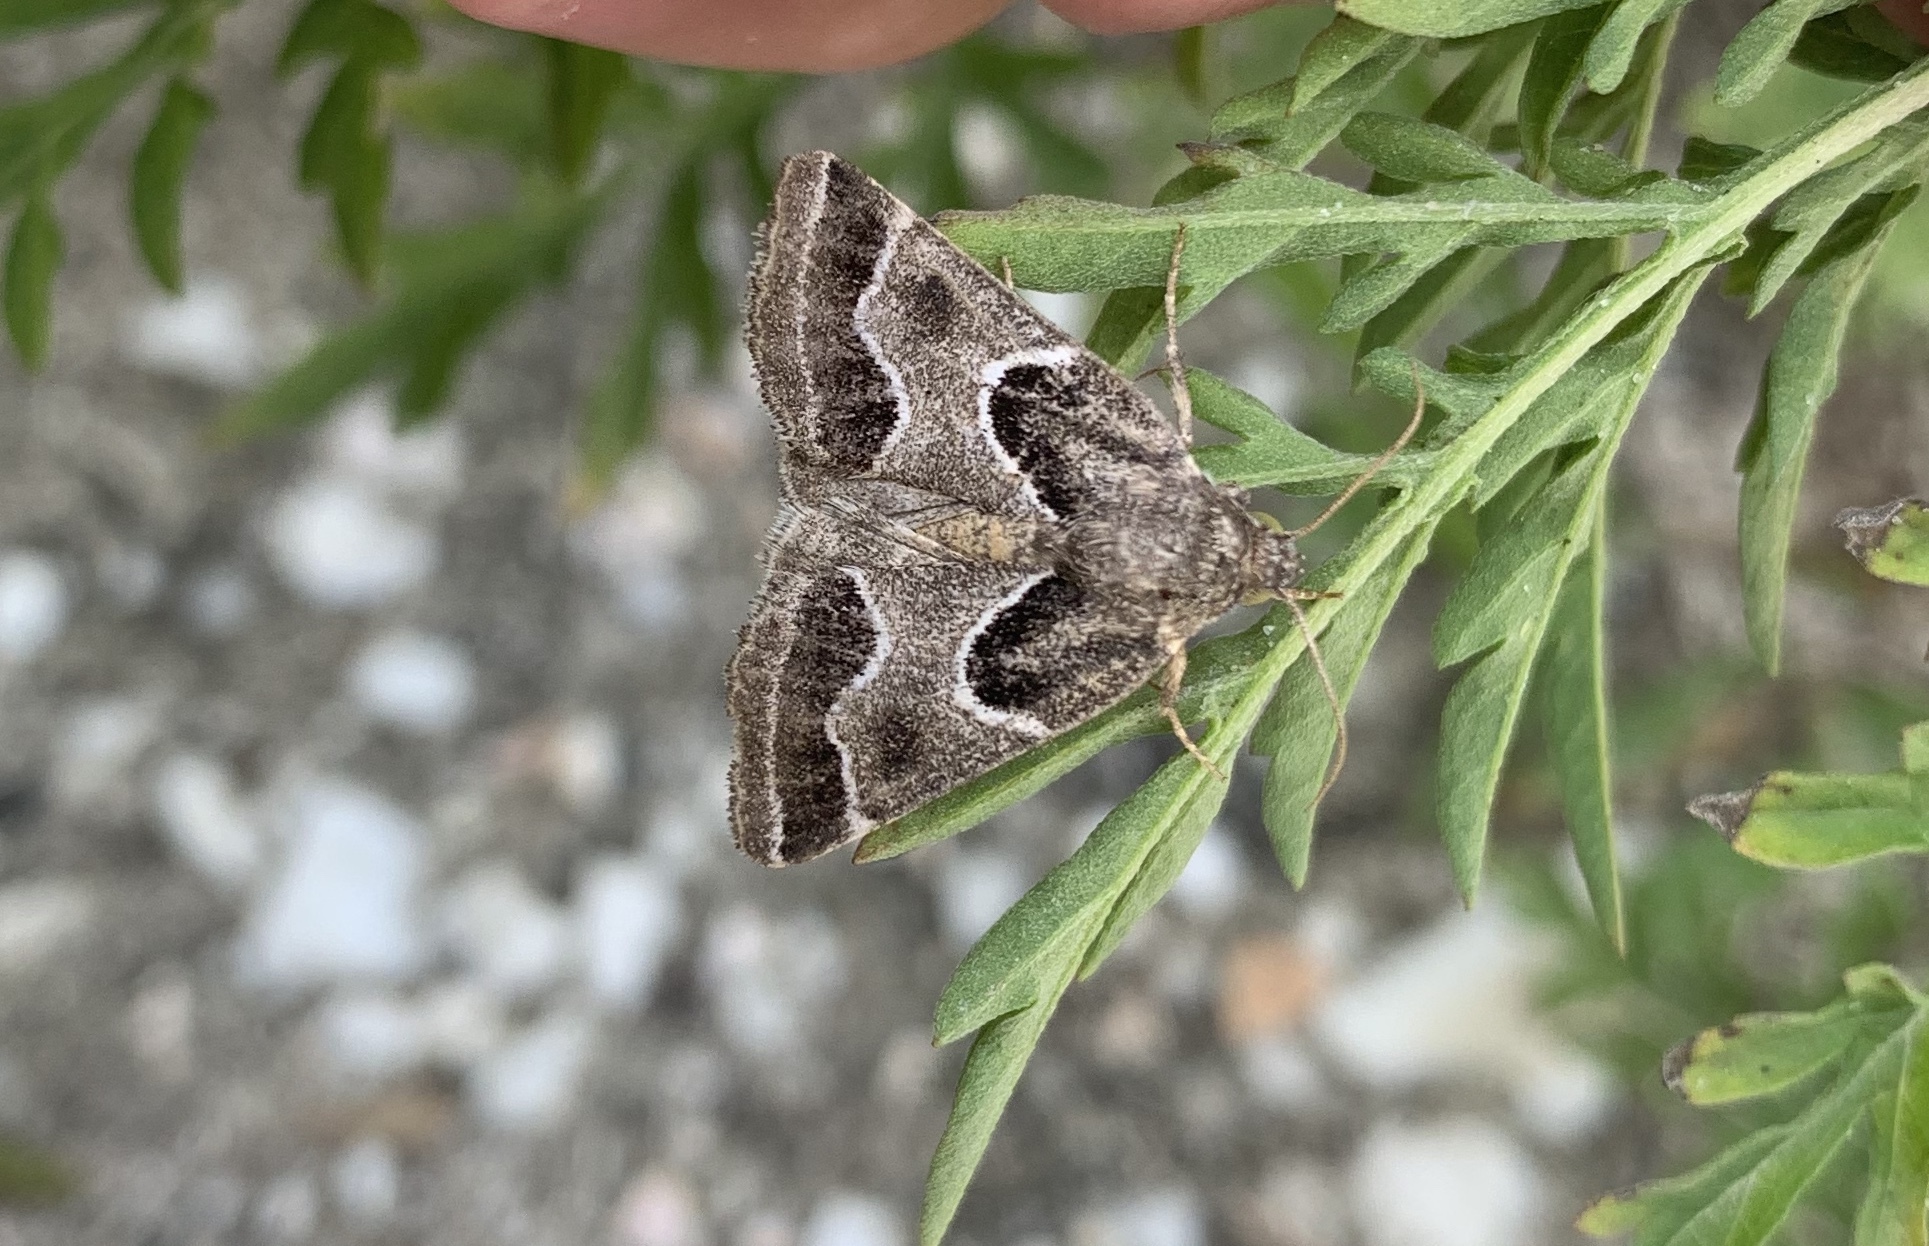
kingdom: Animalia
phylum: Arthropoda
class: Insecta
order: Lepidoptera
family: Noctuidae
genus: Schinia
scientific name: Schinia rivulosa
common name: Scarce meal-moth
